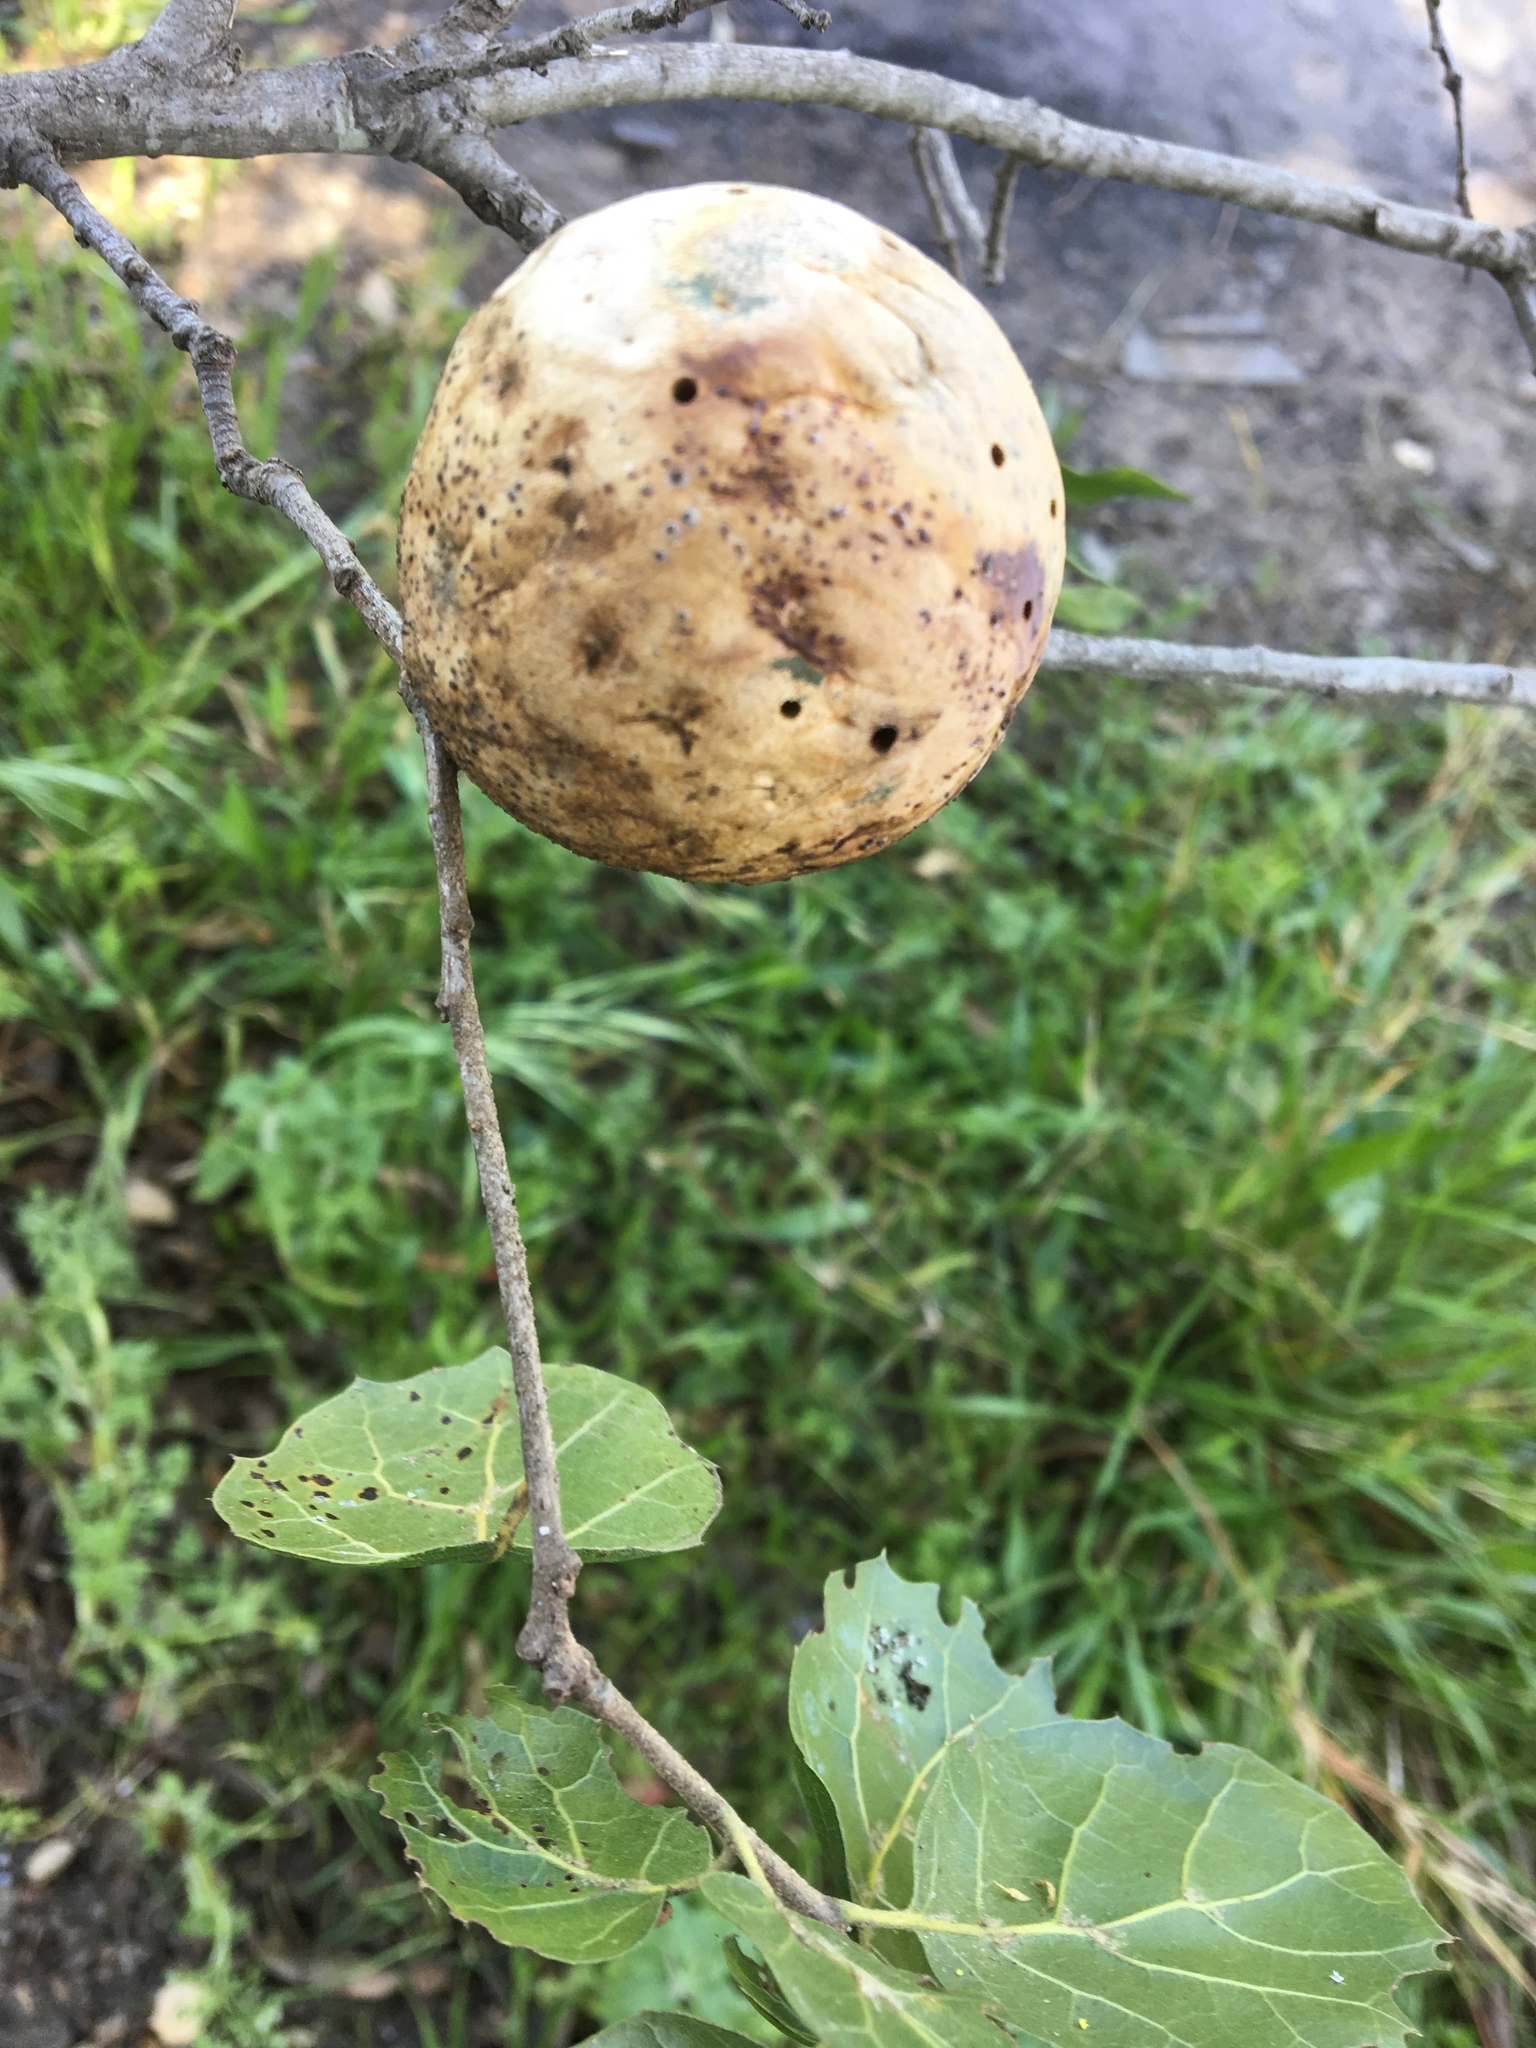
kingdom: Animalia
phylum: Arthropoda
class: Insecta
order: Hymenoptera
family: Cynipidae
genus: Amphibolips
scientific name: Amphibolips quercuspomiformis
